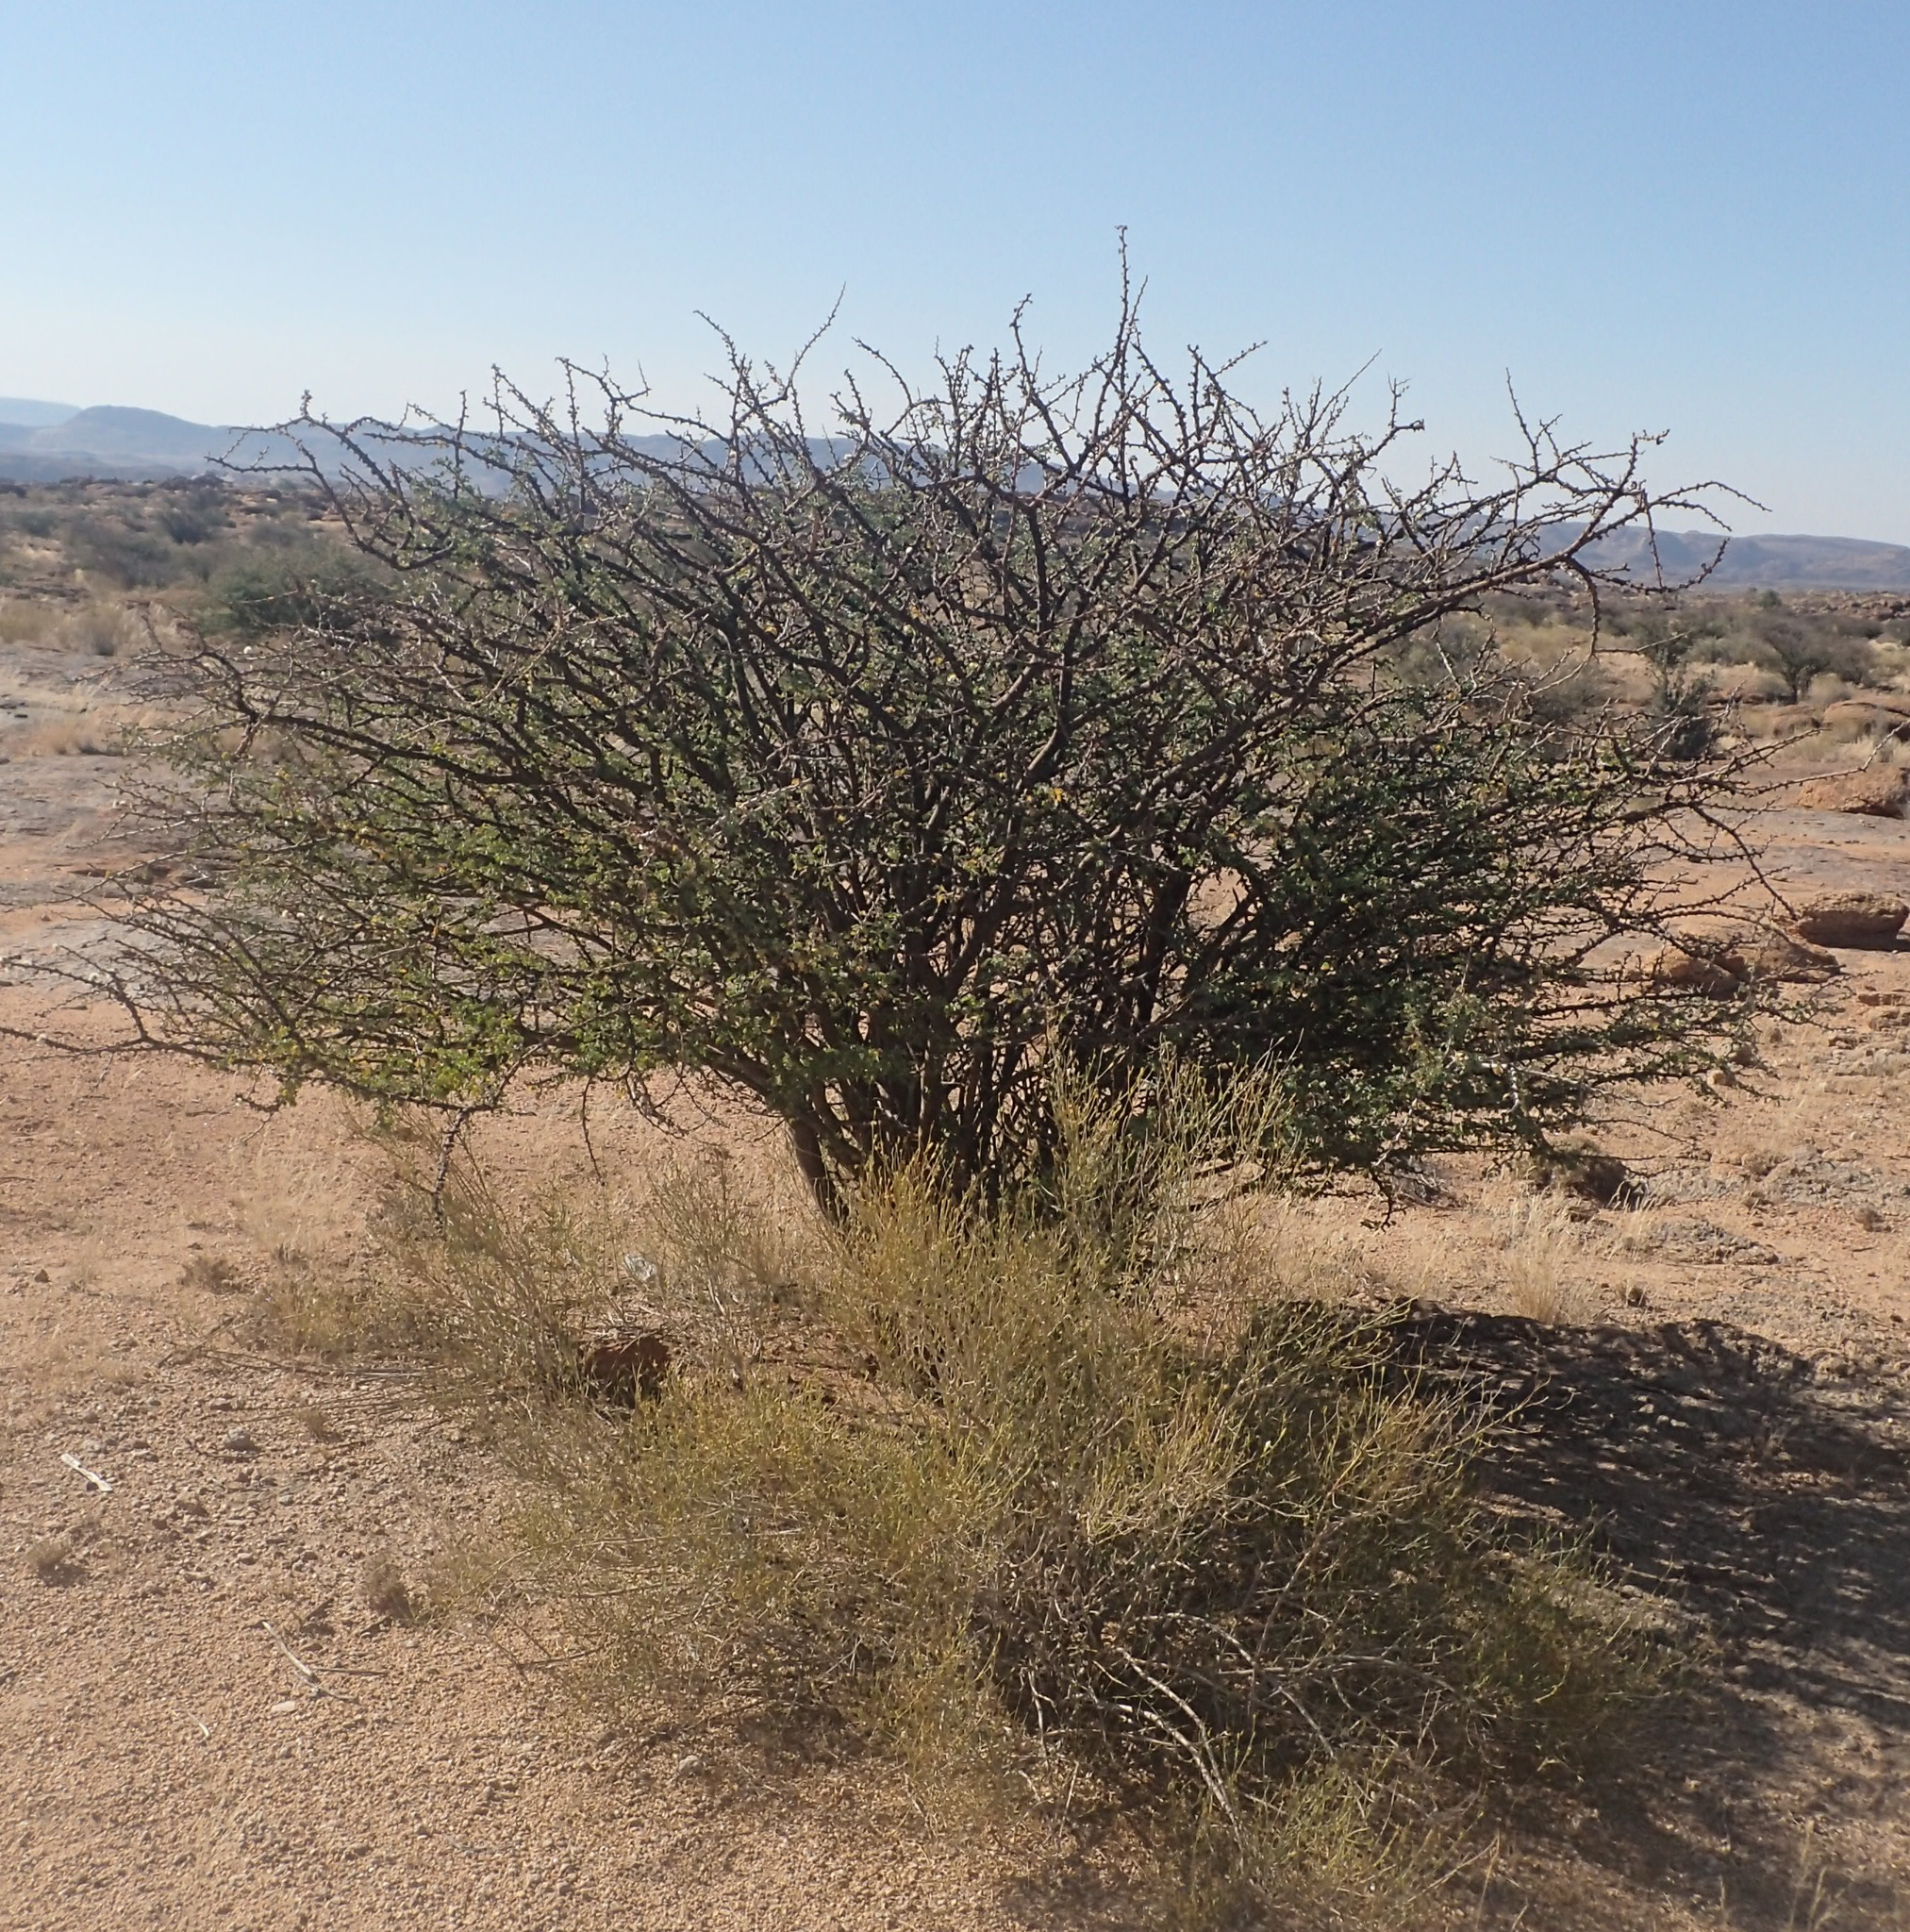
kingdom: Plantae
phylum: Tracheophyta
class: Magnoliopsida
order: Fabales
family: Fabaceae
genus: Senegalia
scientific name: Senegalia mellifera
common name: Hookthorn
